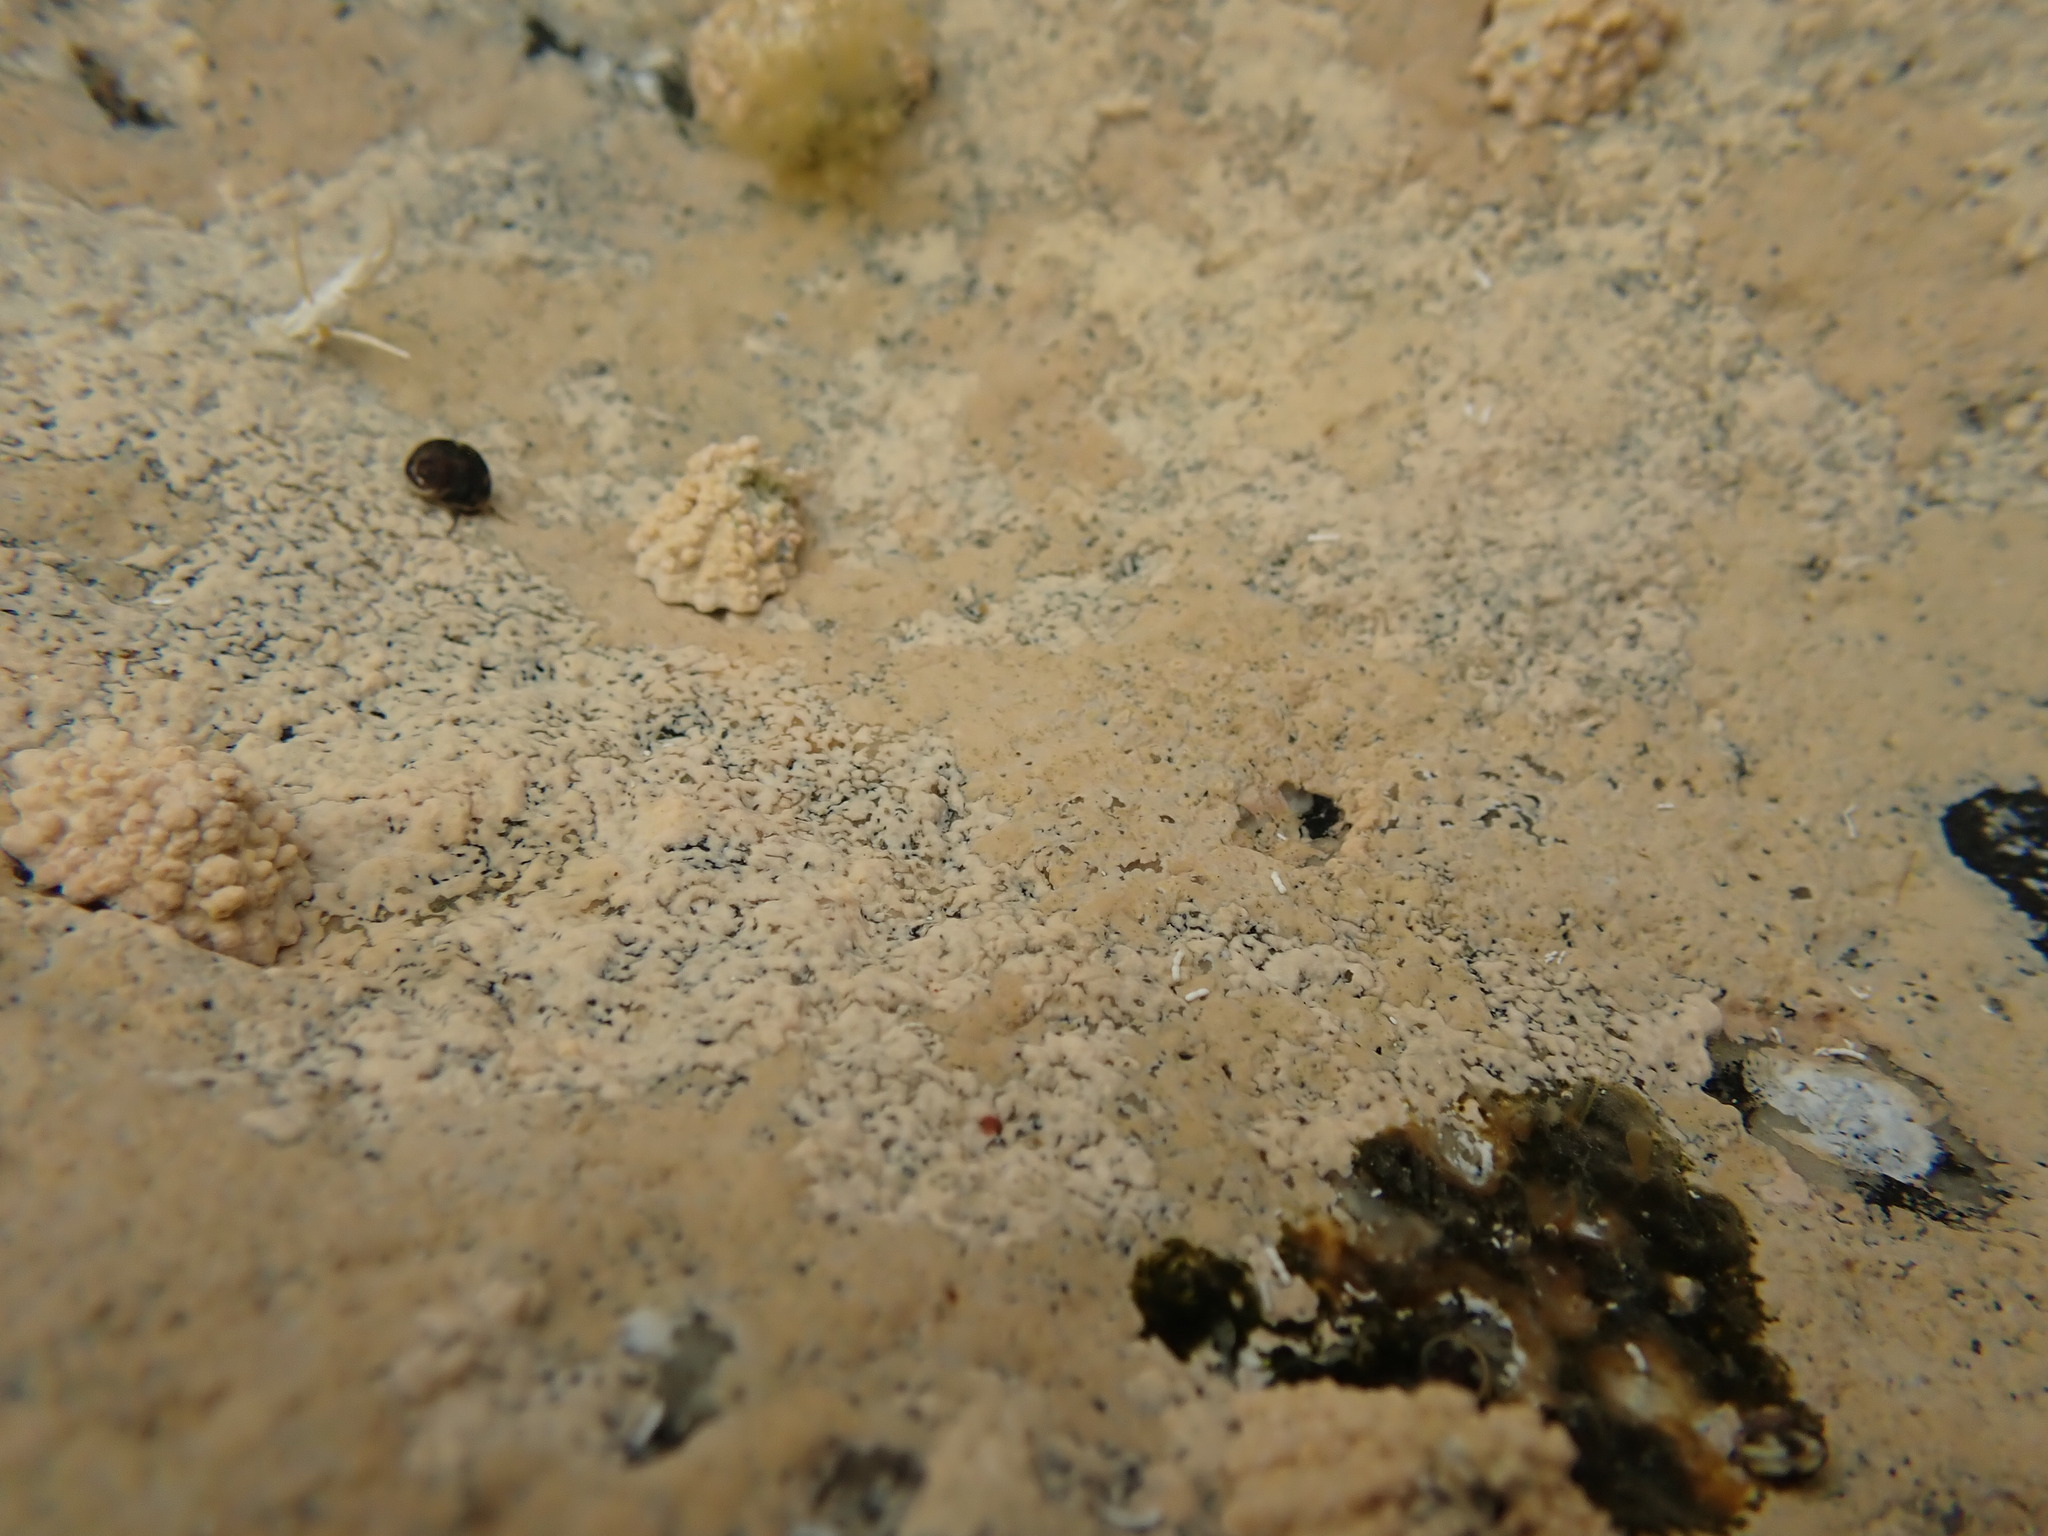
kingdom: Animalia
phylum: Mollusca
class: Gastropoda
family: Lottiidae
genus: Patelloida
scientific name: Patelloida corticata
